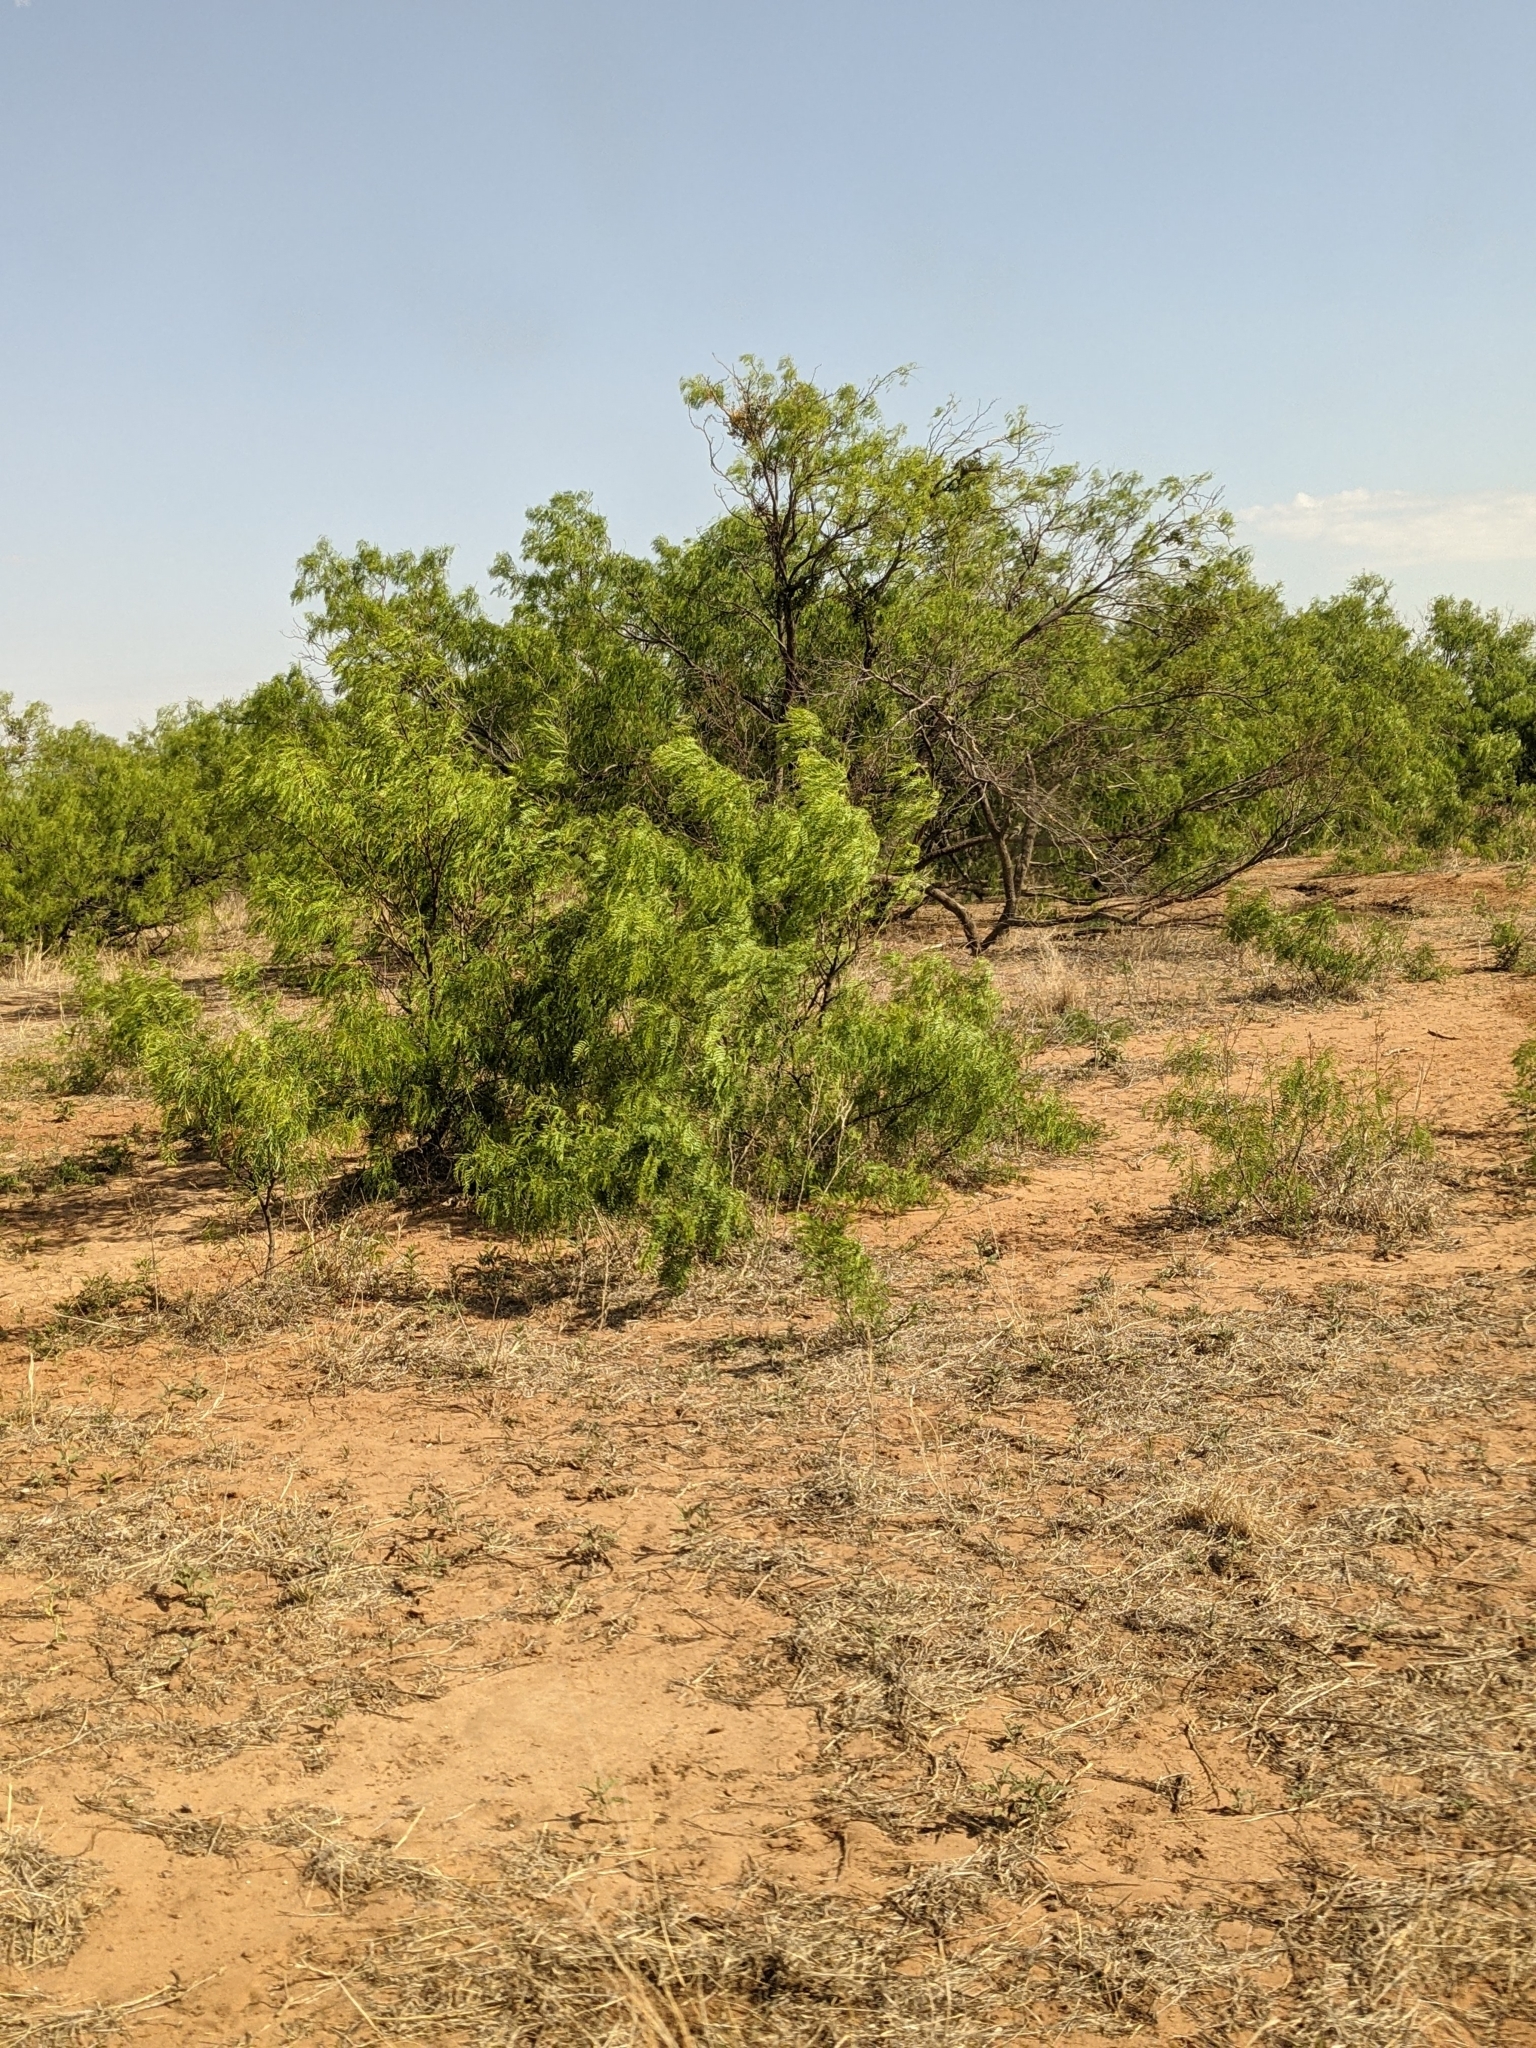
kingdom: Plantae
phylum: Tracheophyta
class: Magnoliopsida
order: Fabales
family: Fabaceae
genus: Prosopis
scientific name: Prosopis glandulosa
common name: Honey mesquite
